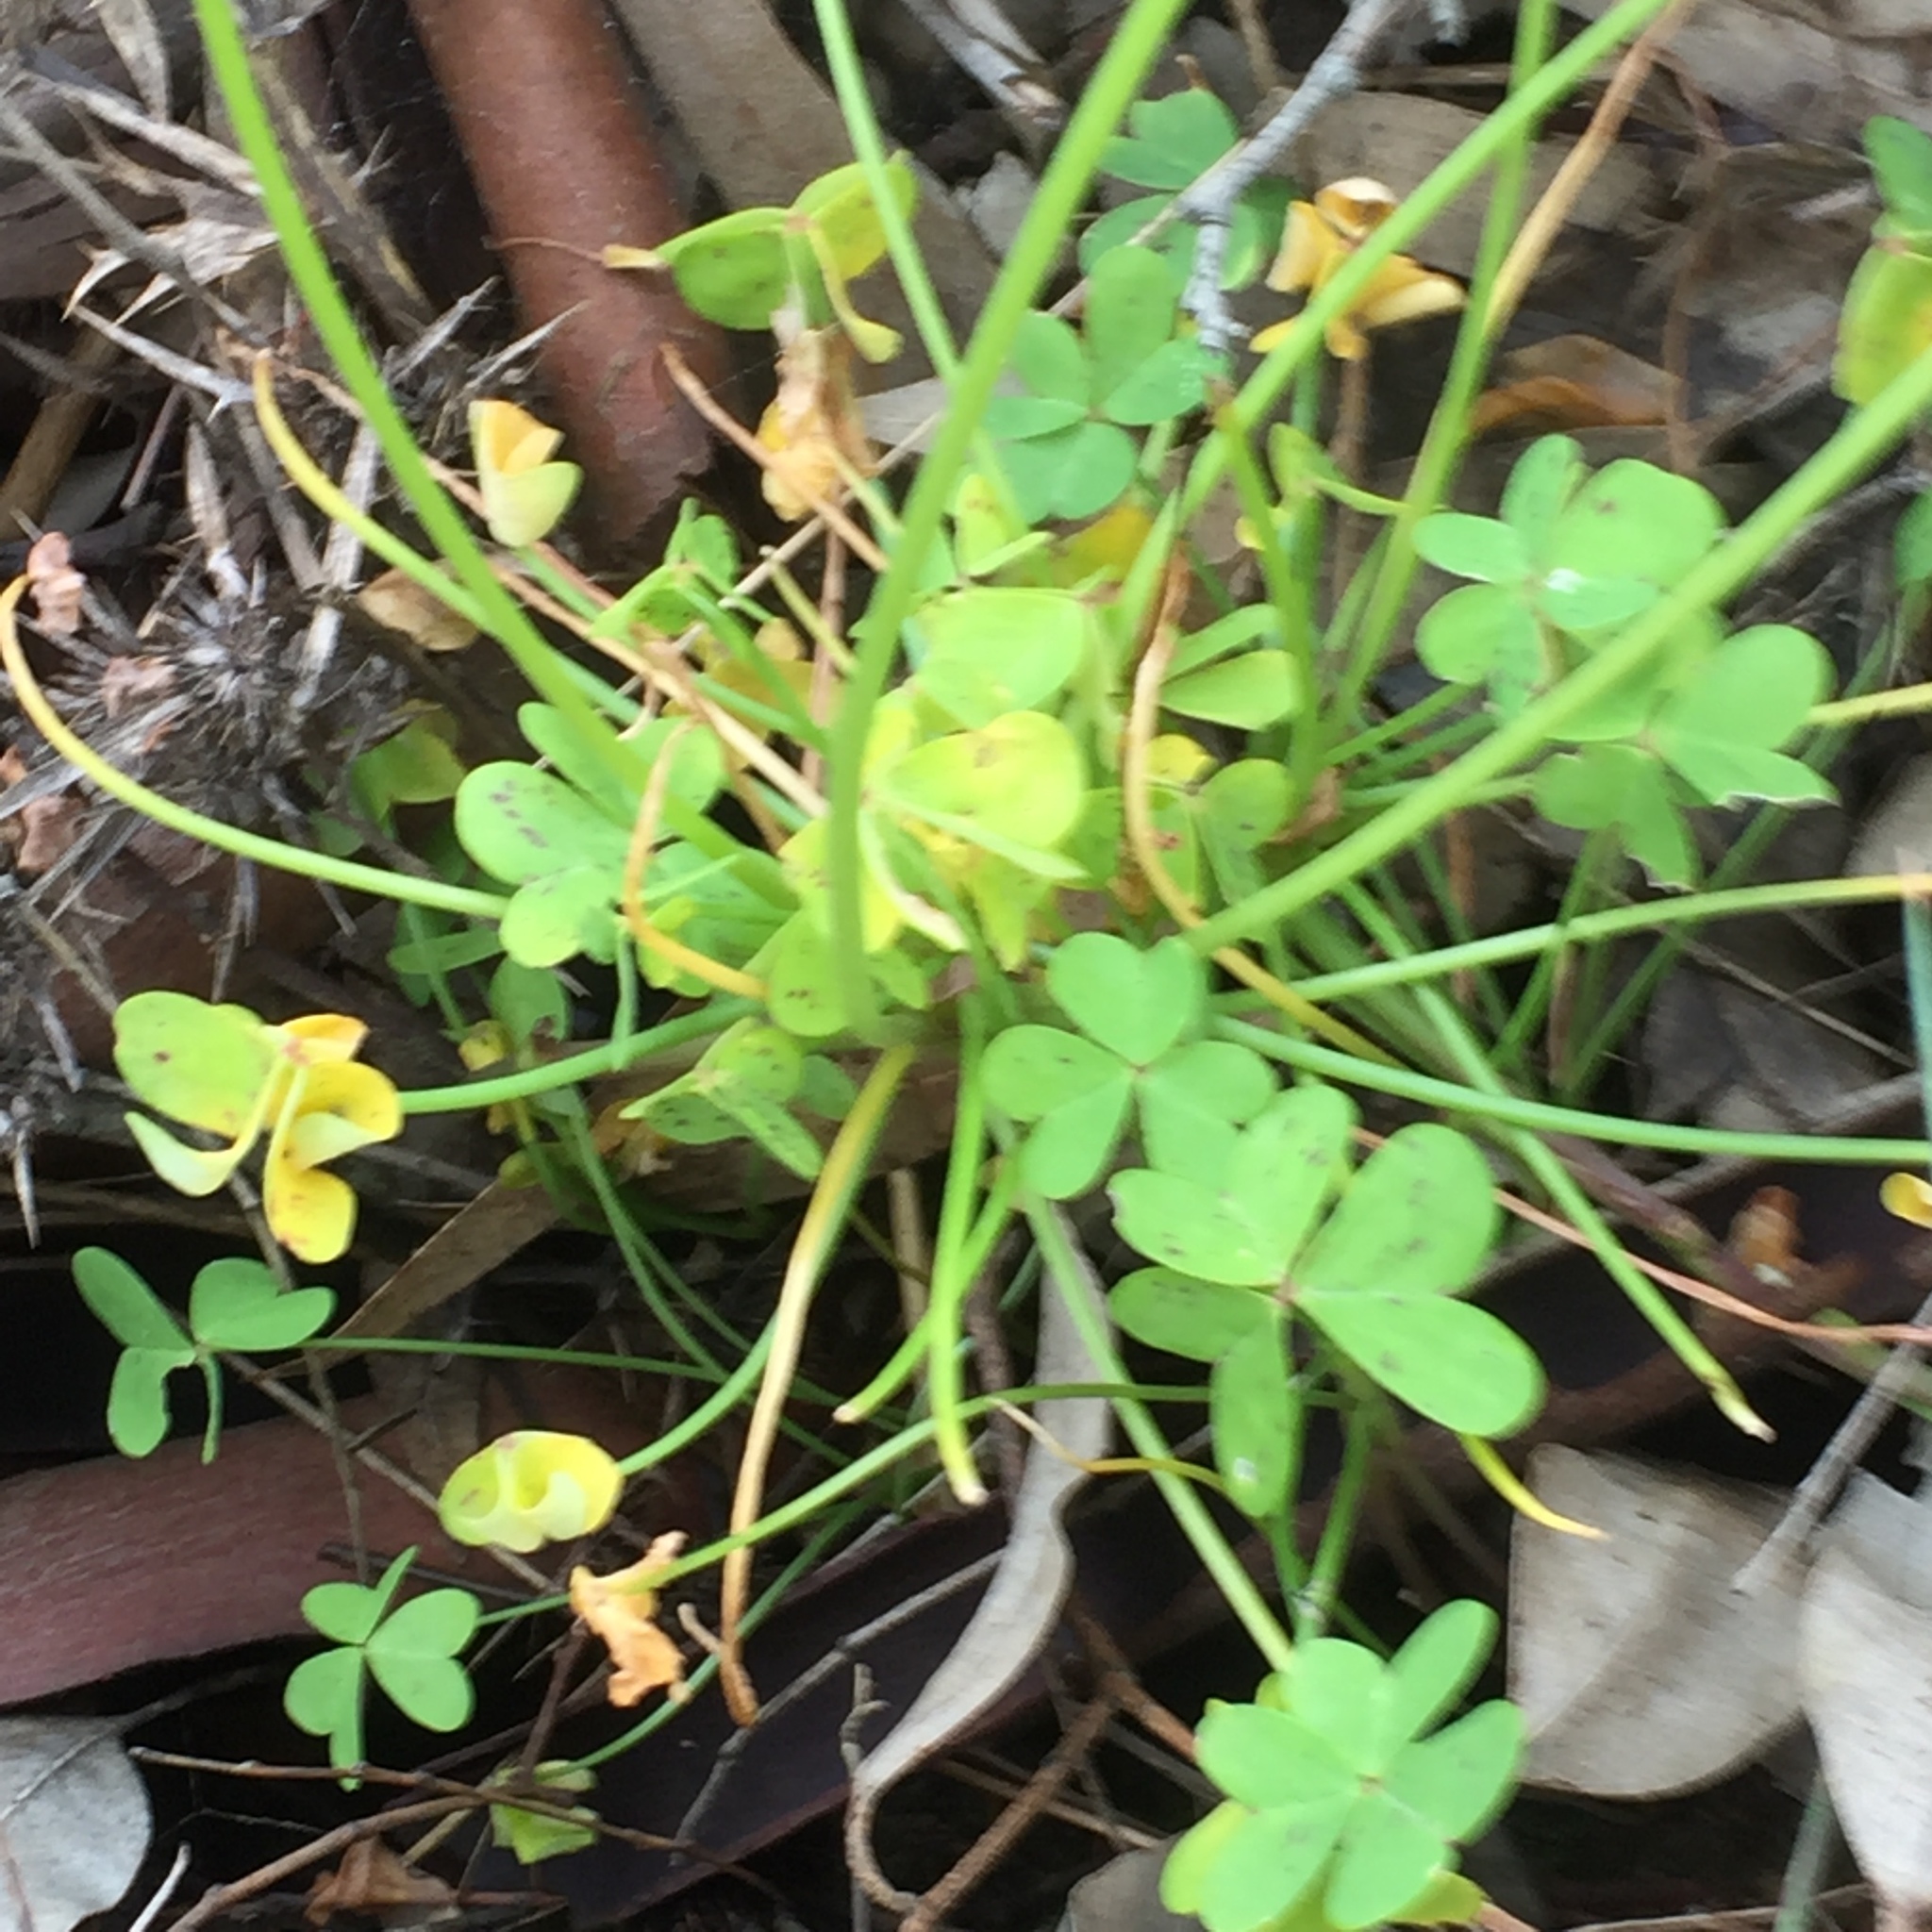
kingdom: Plantae
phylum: Tracheophyta
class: Magnoliopsida
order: Oxalidales
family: Oxalidaceae
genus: Oxalis
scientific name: Oxalis pes-caprae
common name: Bermuda-buttercup
